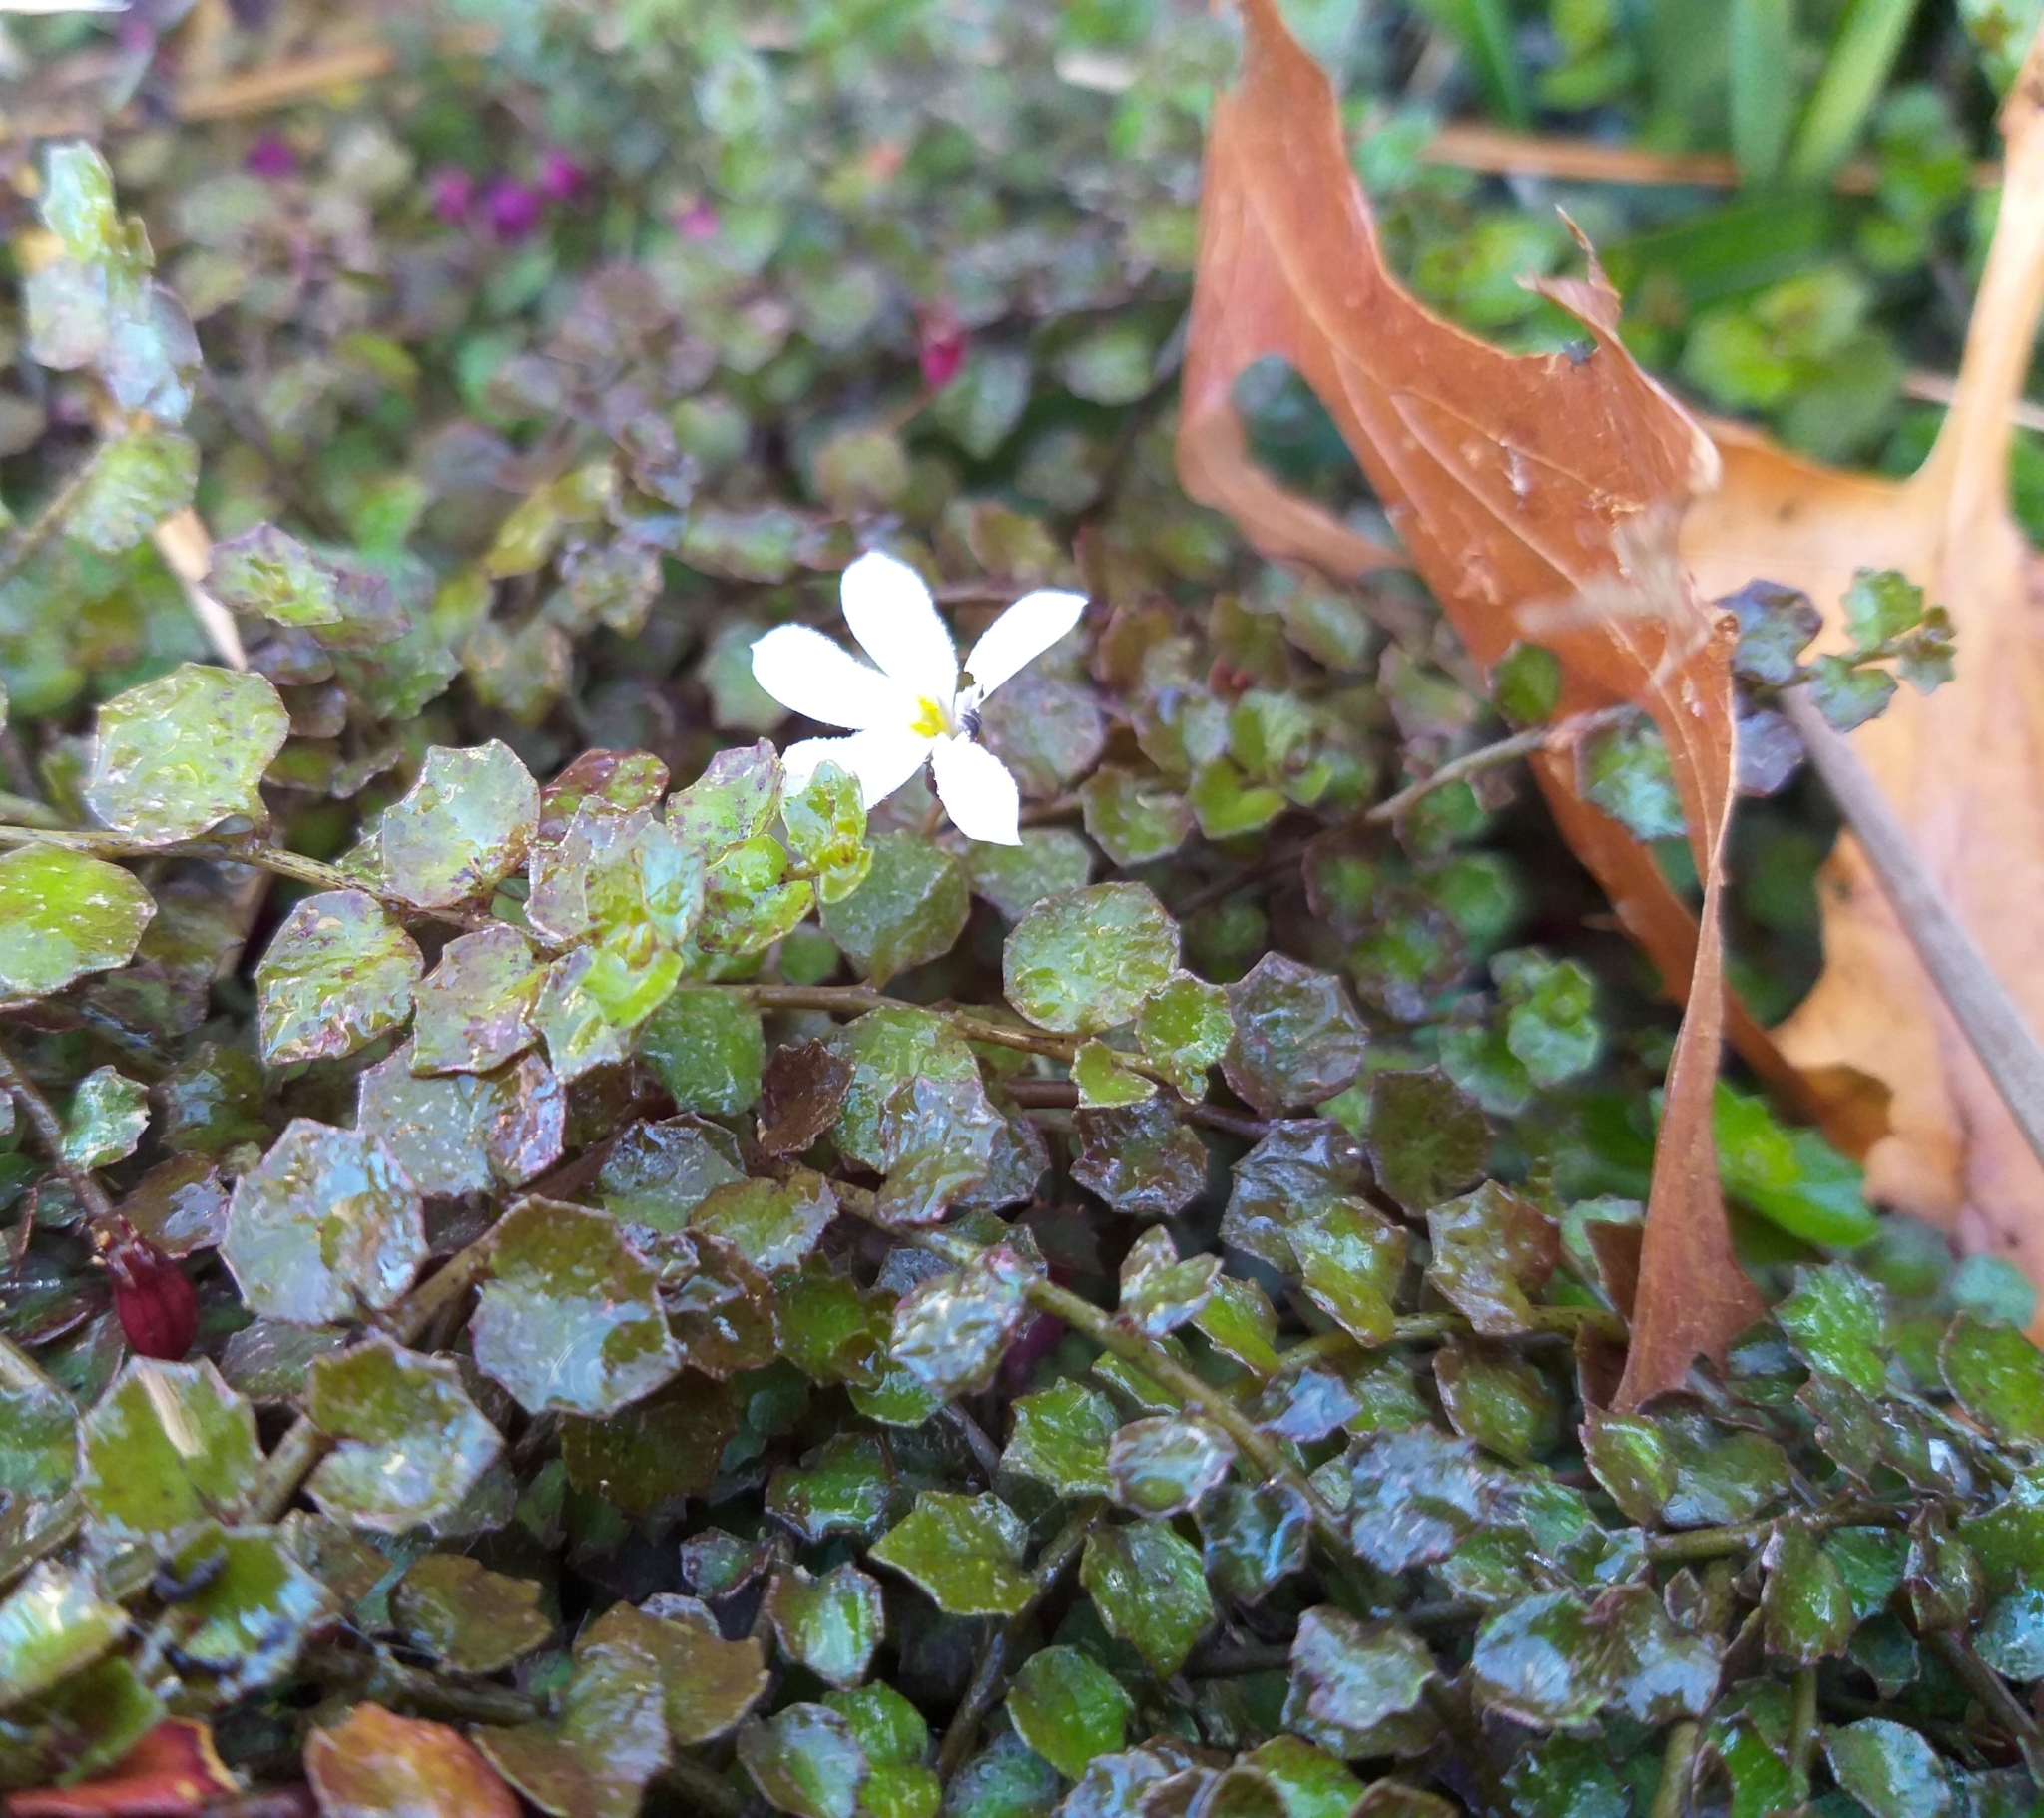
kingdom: Plantae
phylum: Tracheophyta
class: Magnoliopsida
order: Asterales
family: Campanulaceae
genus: Lobelia
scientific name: Lobelia angulata
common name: Lawn lobelia
